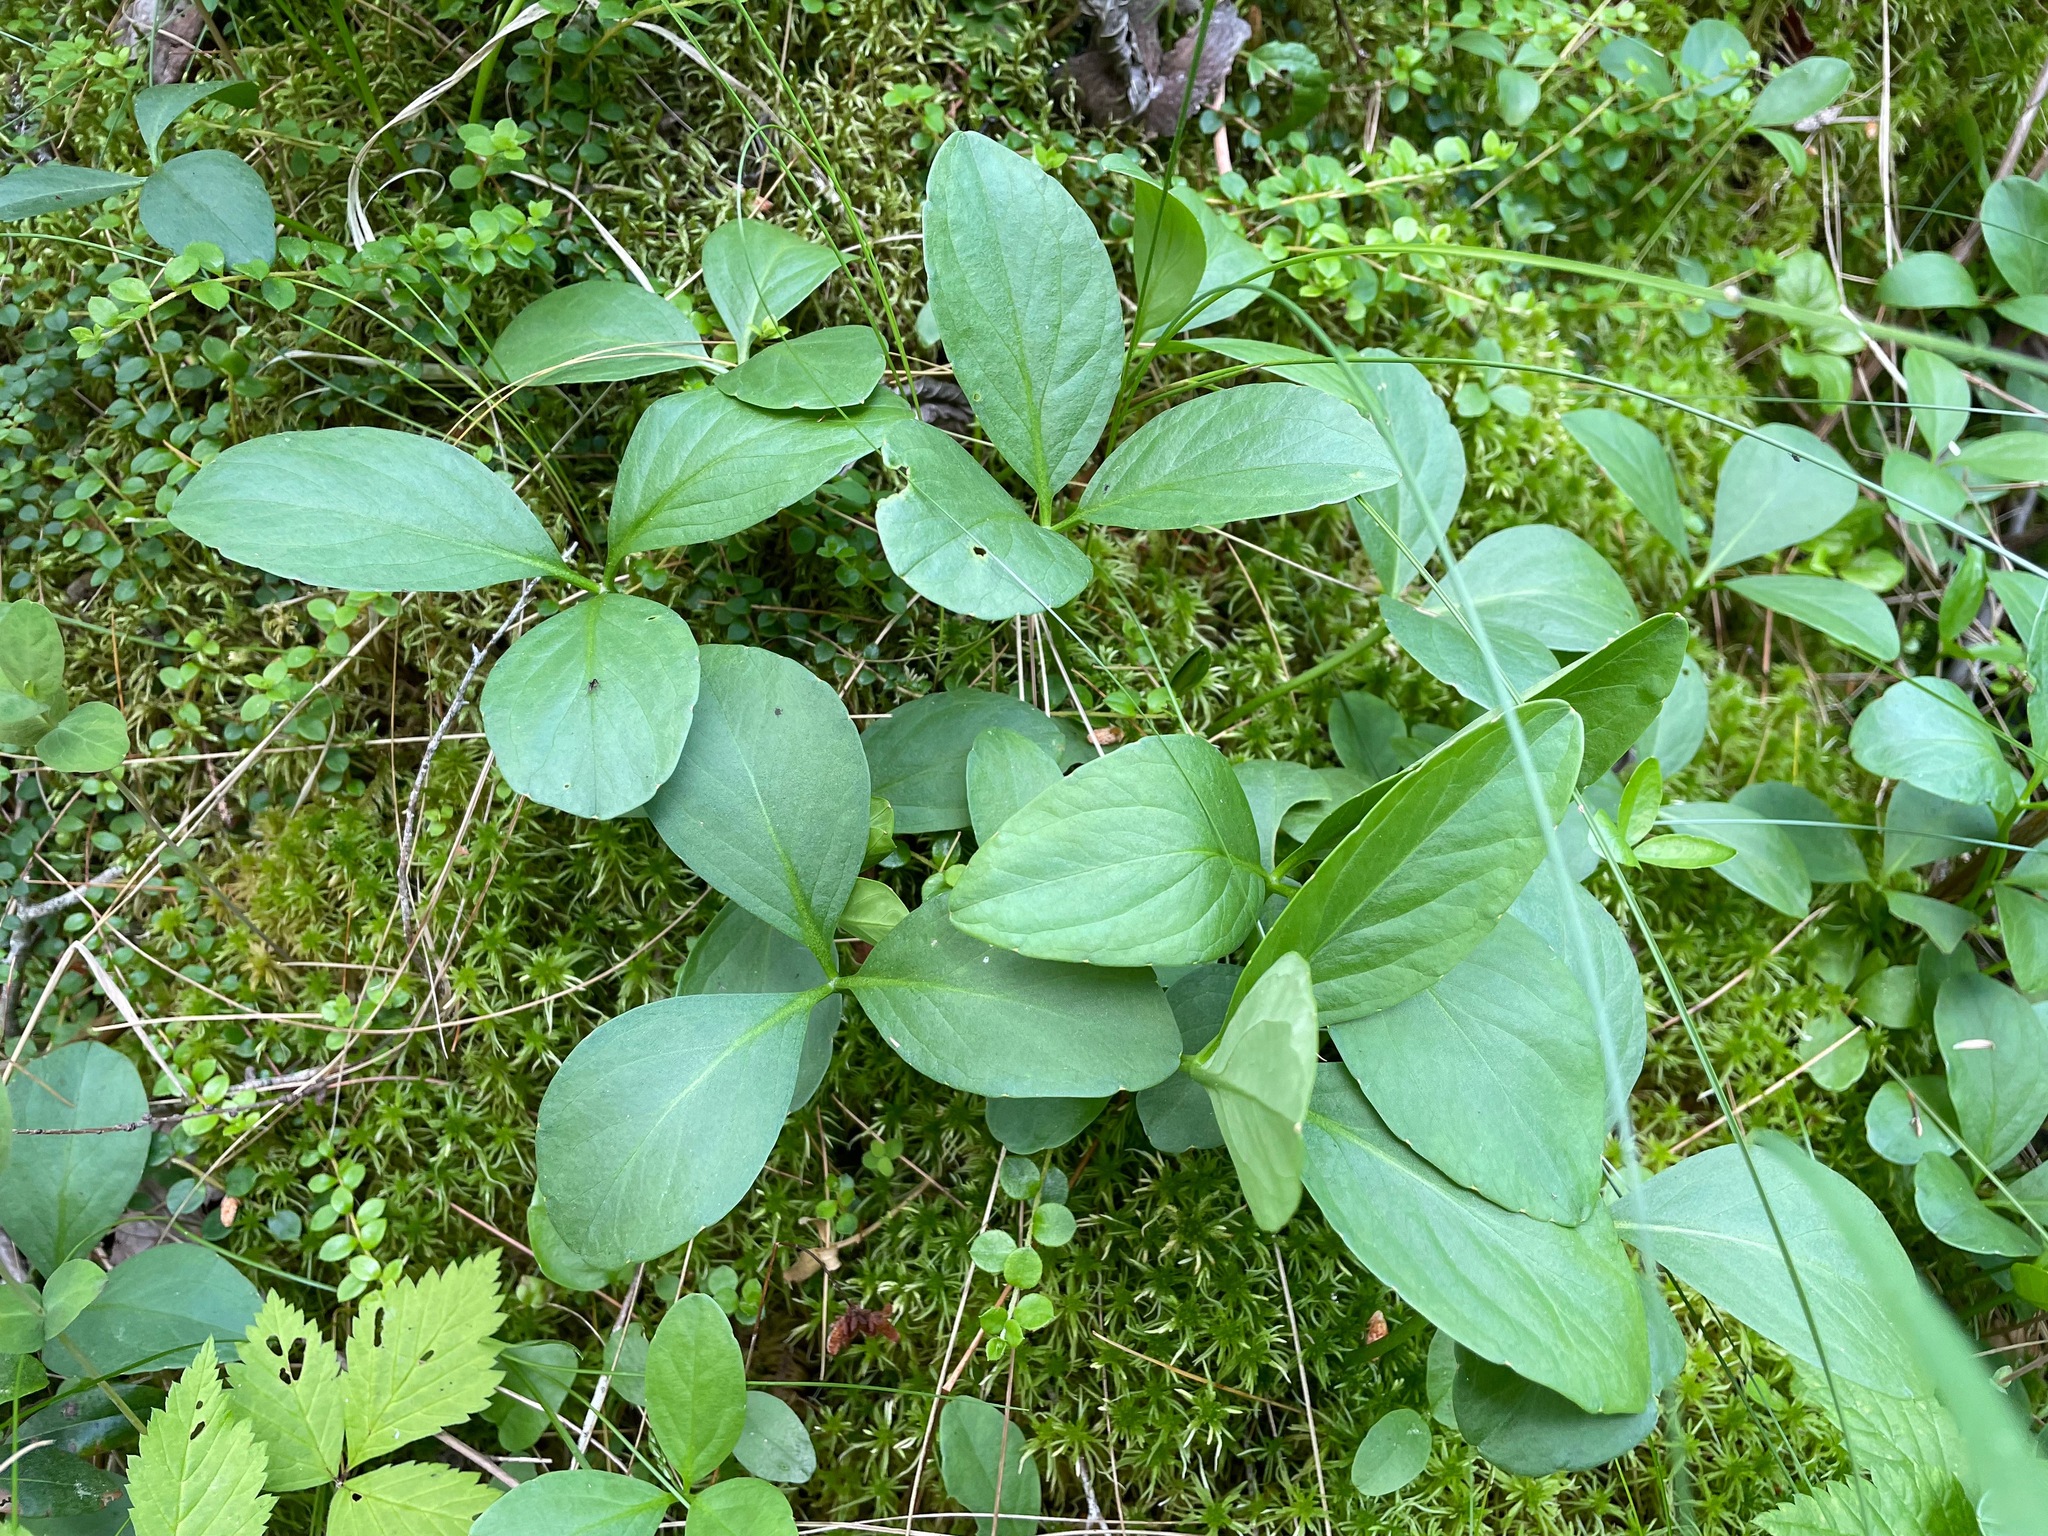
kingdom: Plantae
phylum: Tracheophyta
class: Magnoliopsida
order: Asterales
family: Menyanthaceae
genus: Menyanthes
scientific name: Menyanthes trifoliata
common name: Bogbean
